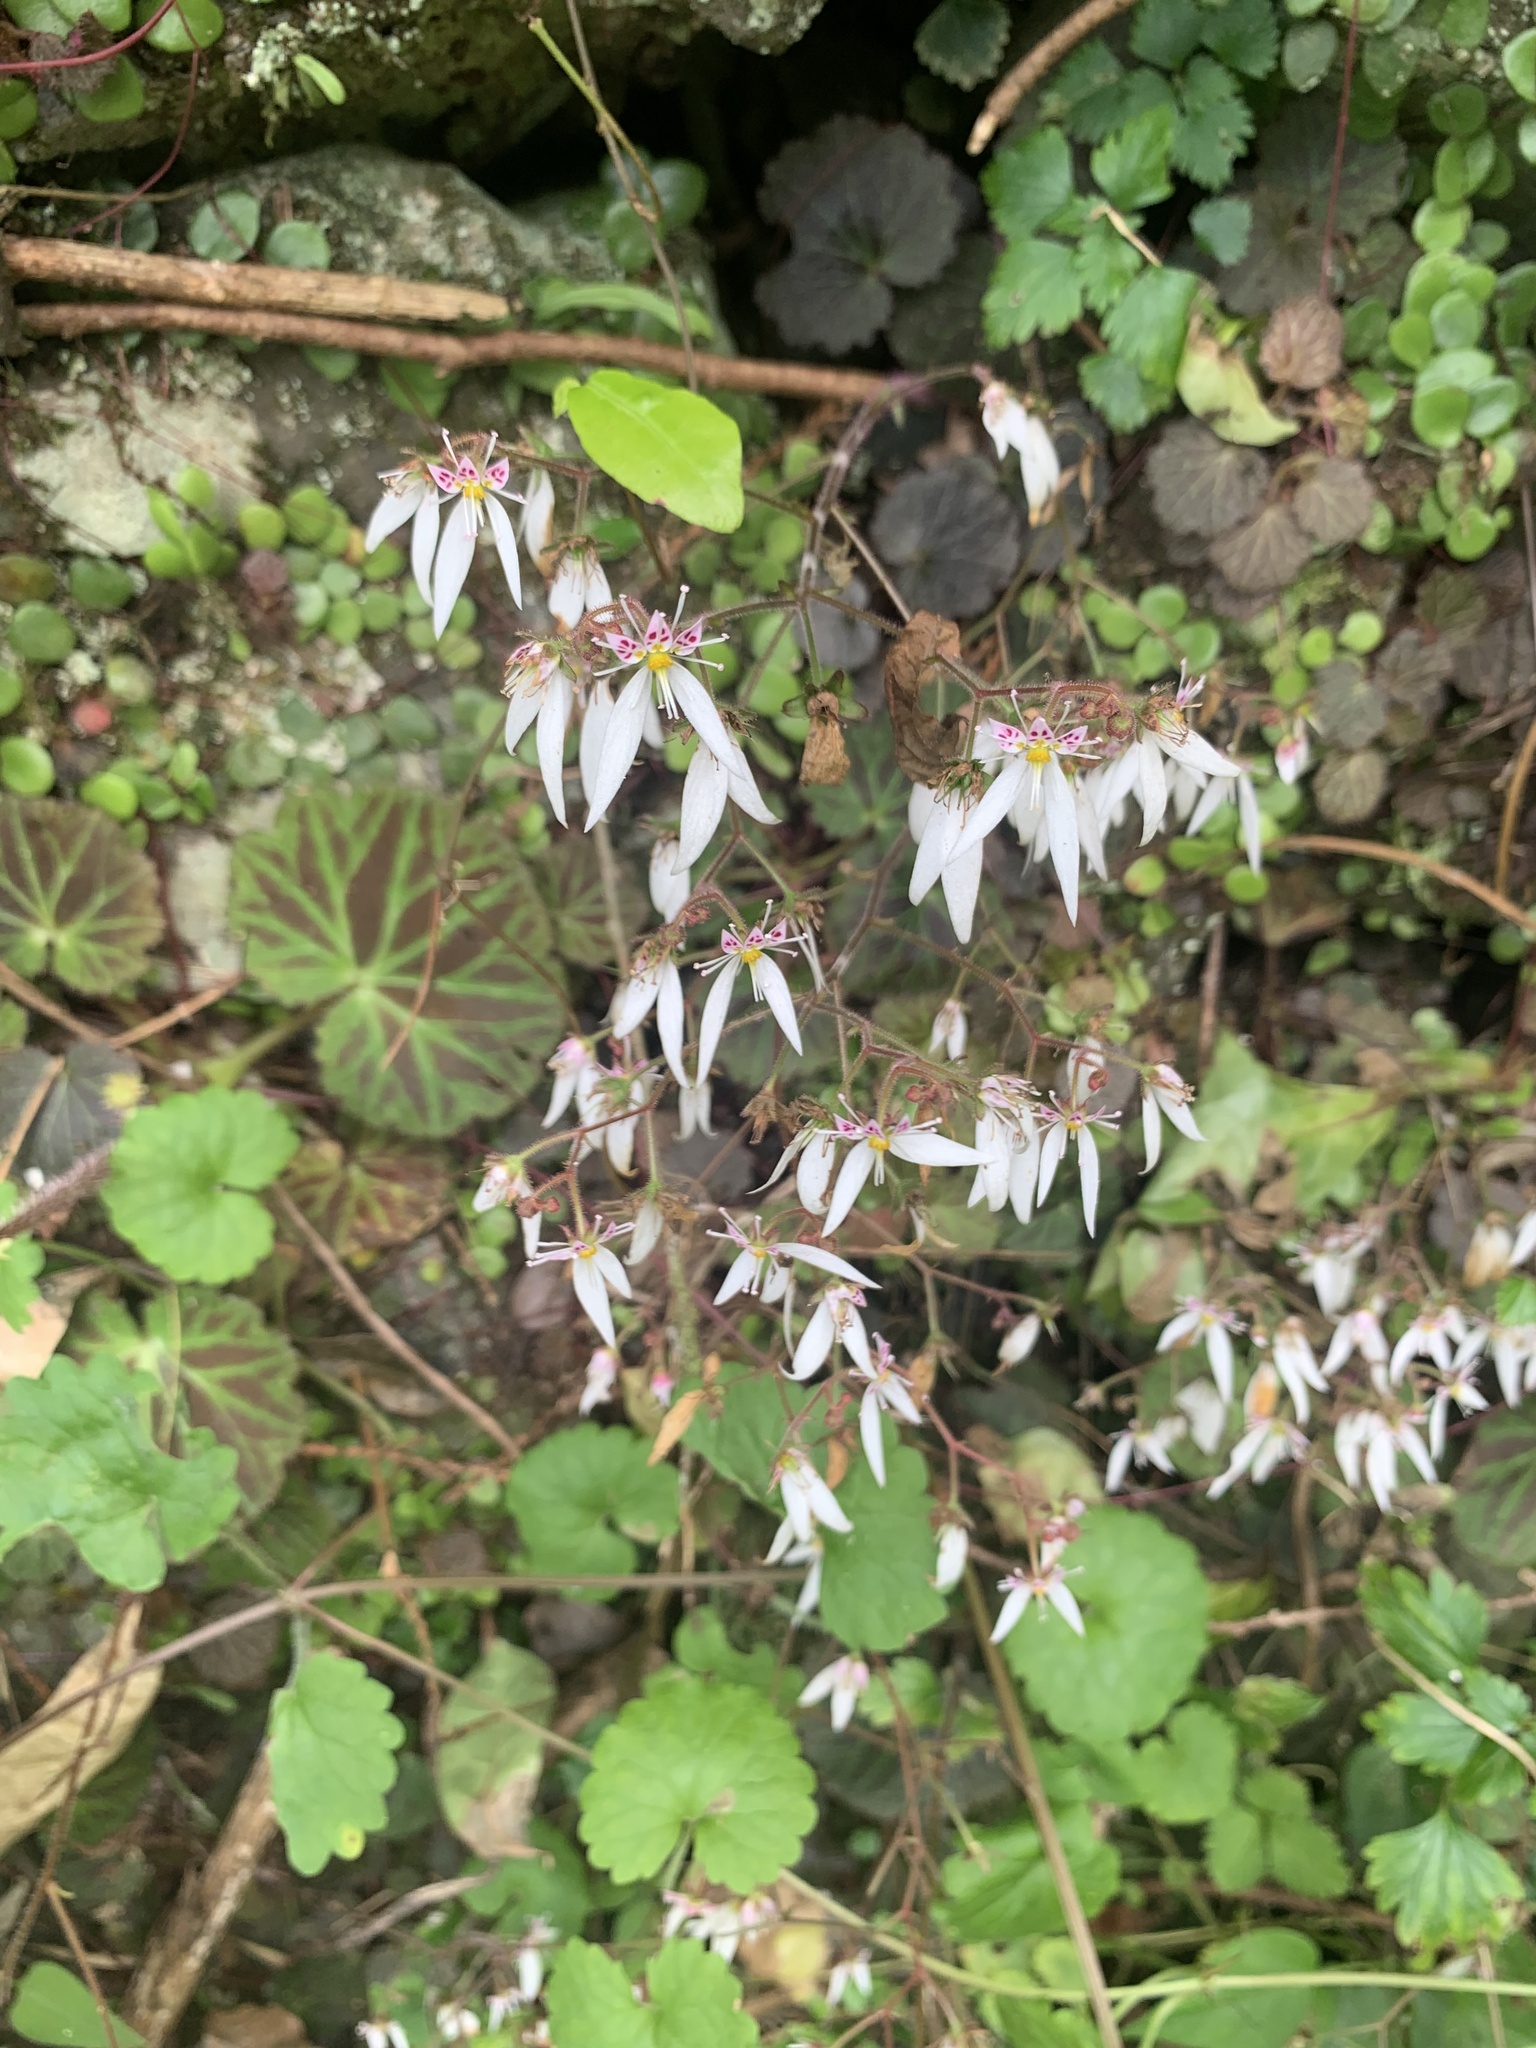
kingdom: Plantae
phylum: Tracheophyta
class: Magnoliopsida
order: Saxifragales
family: Saxifragaceae
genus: Saxifraga
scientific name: Saxifraga stolonifera
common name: Creeping saxifrage
